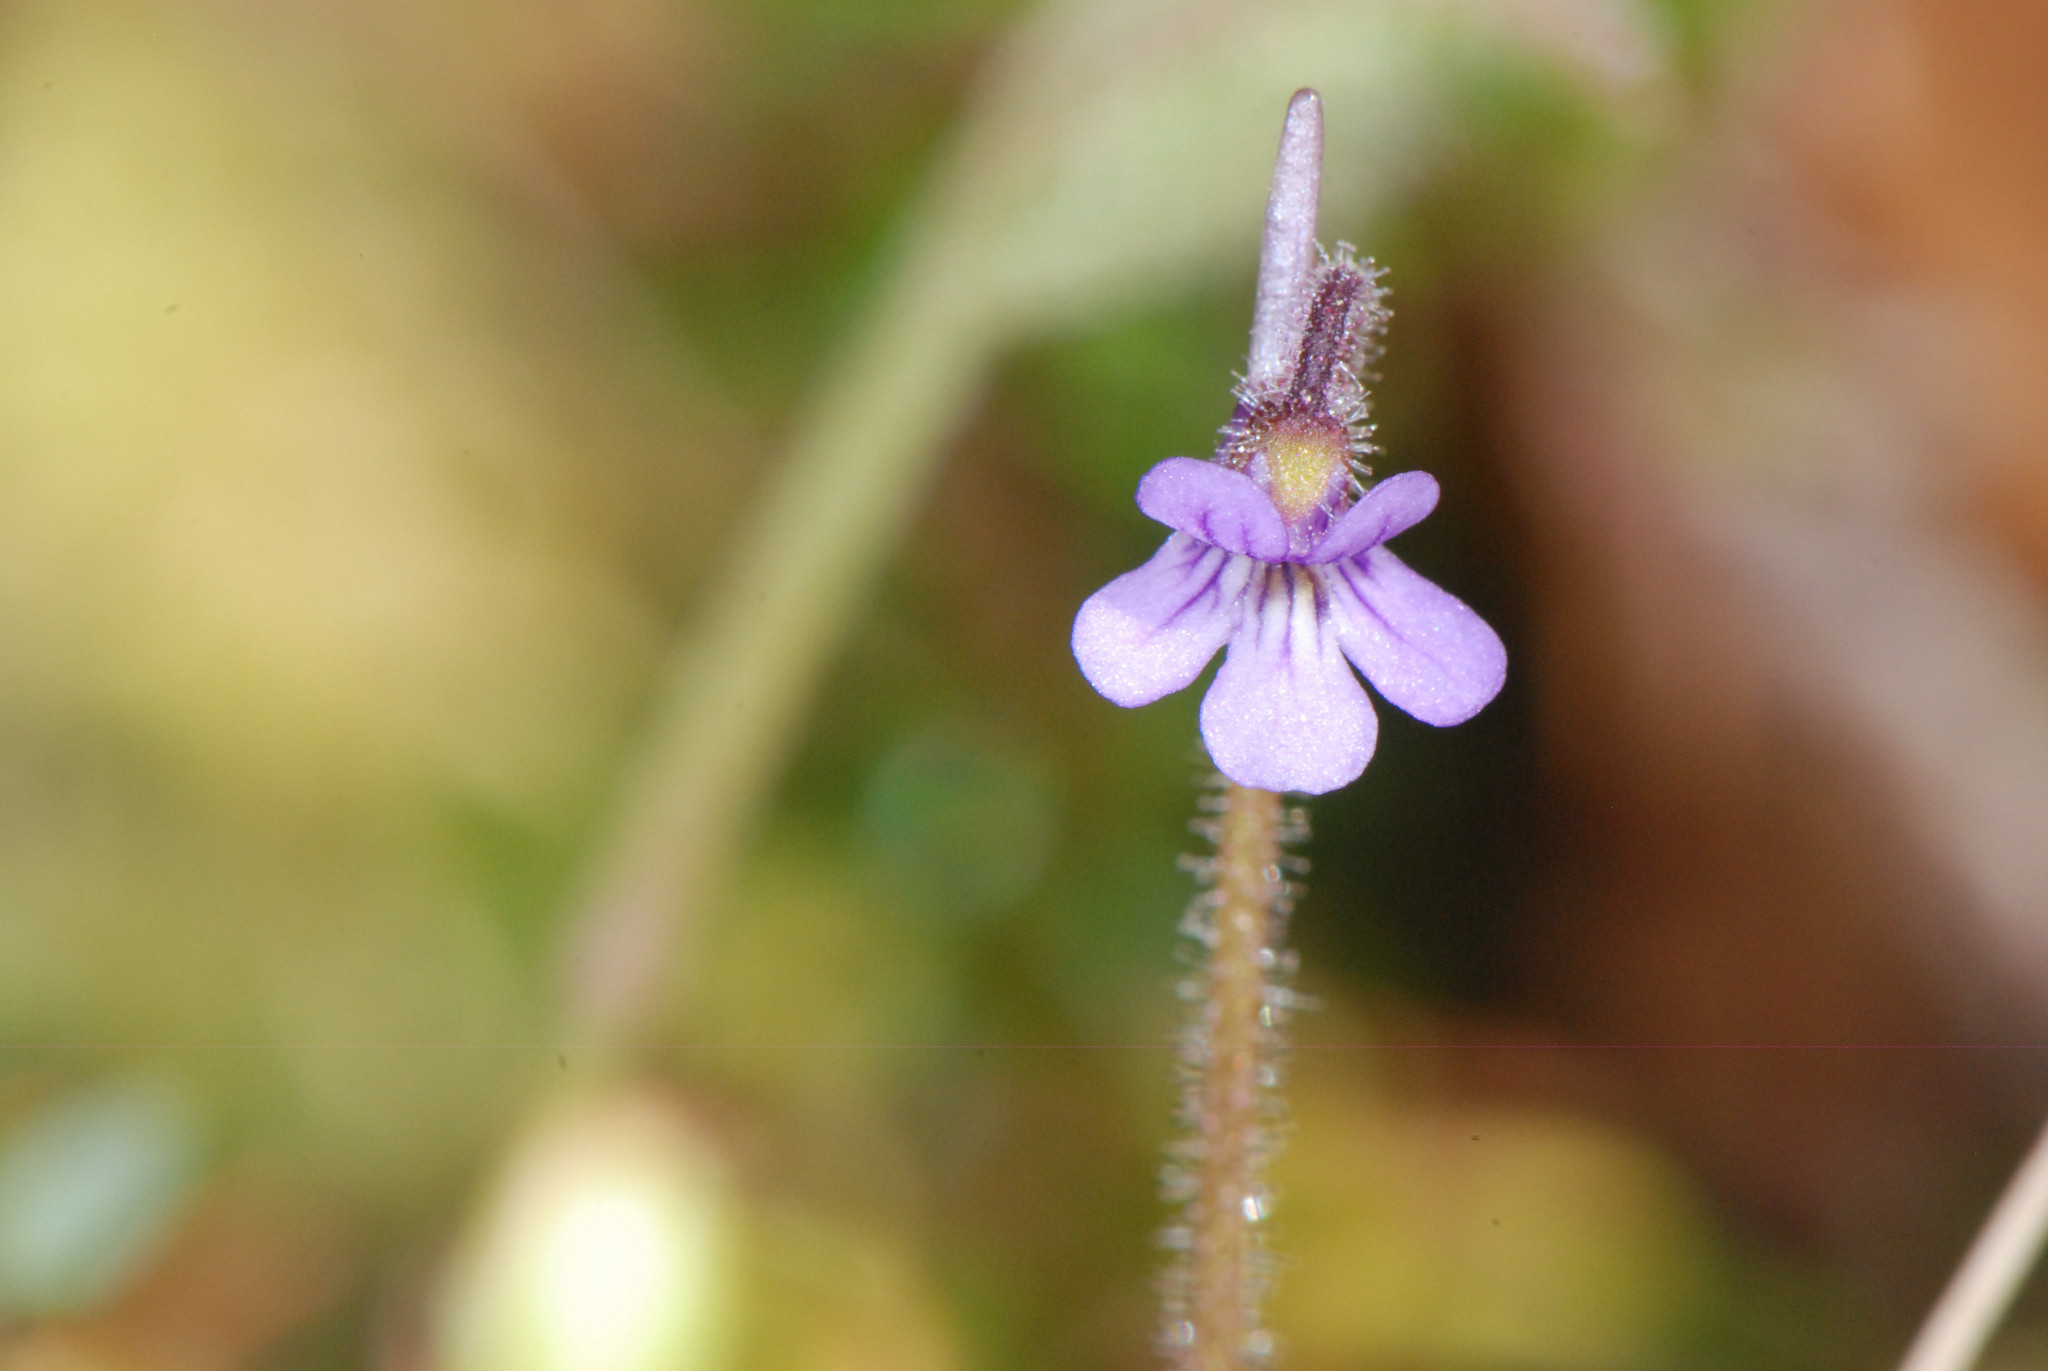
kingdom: Plantae
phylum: Tracheophyta
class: Magnoliopsida
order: Lamiales
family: Lentibulariaceae
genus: Pinguicula
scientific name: Pinguicula villosa
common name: Hairy butterwort
